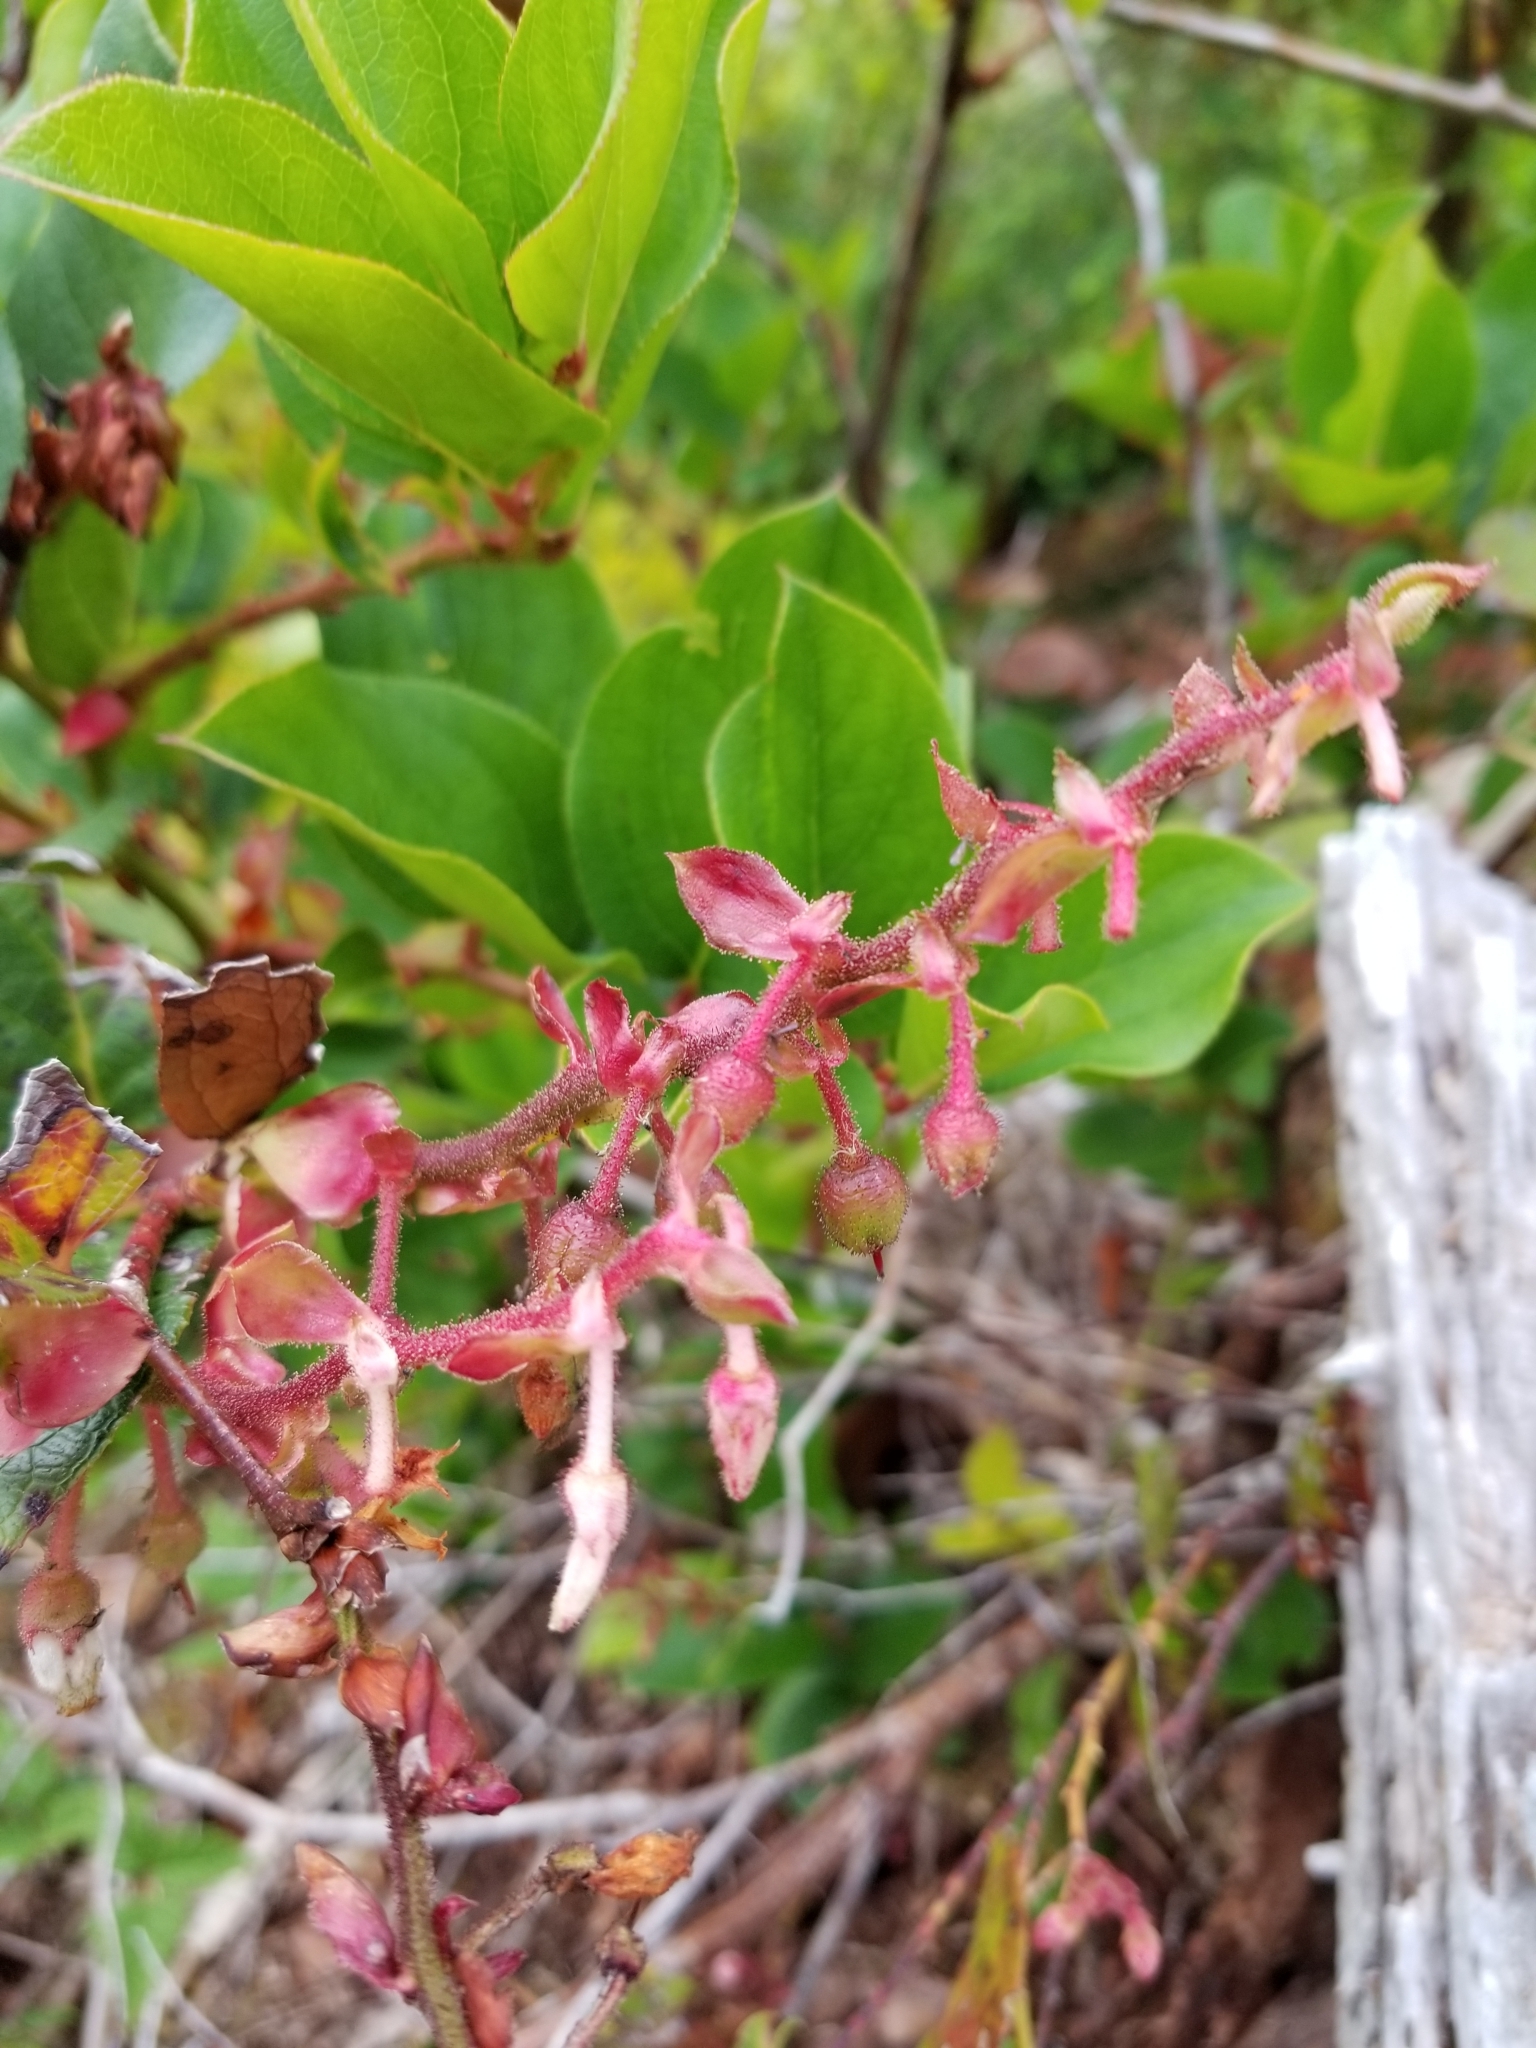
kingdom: Plantae
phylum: Tracheophyta
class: Magnoliopsida
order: Ericales
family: Ericaceae
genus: Gaultheria
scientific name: Gaultheria shallon
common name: Shallon
